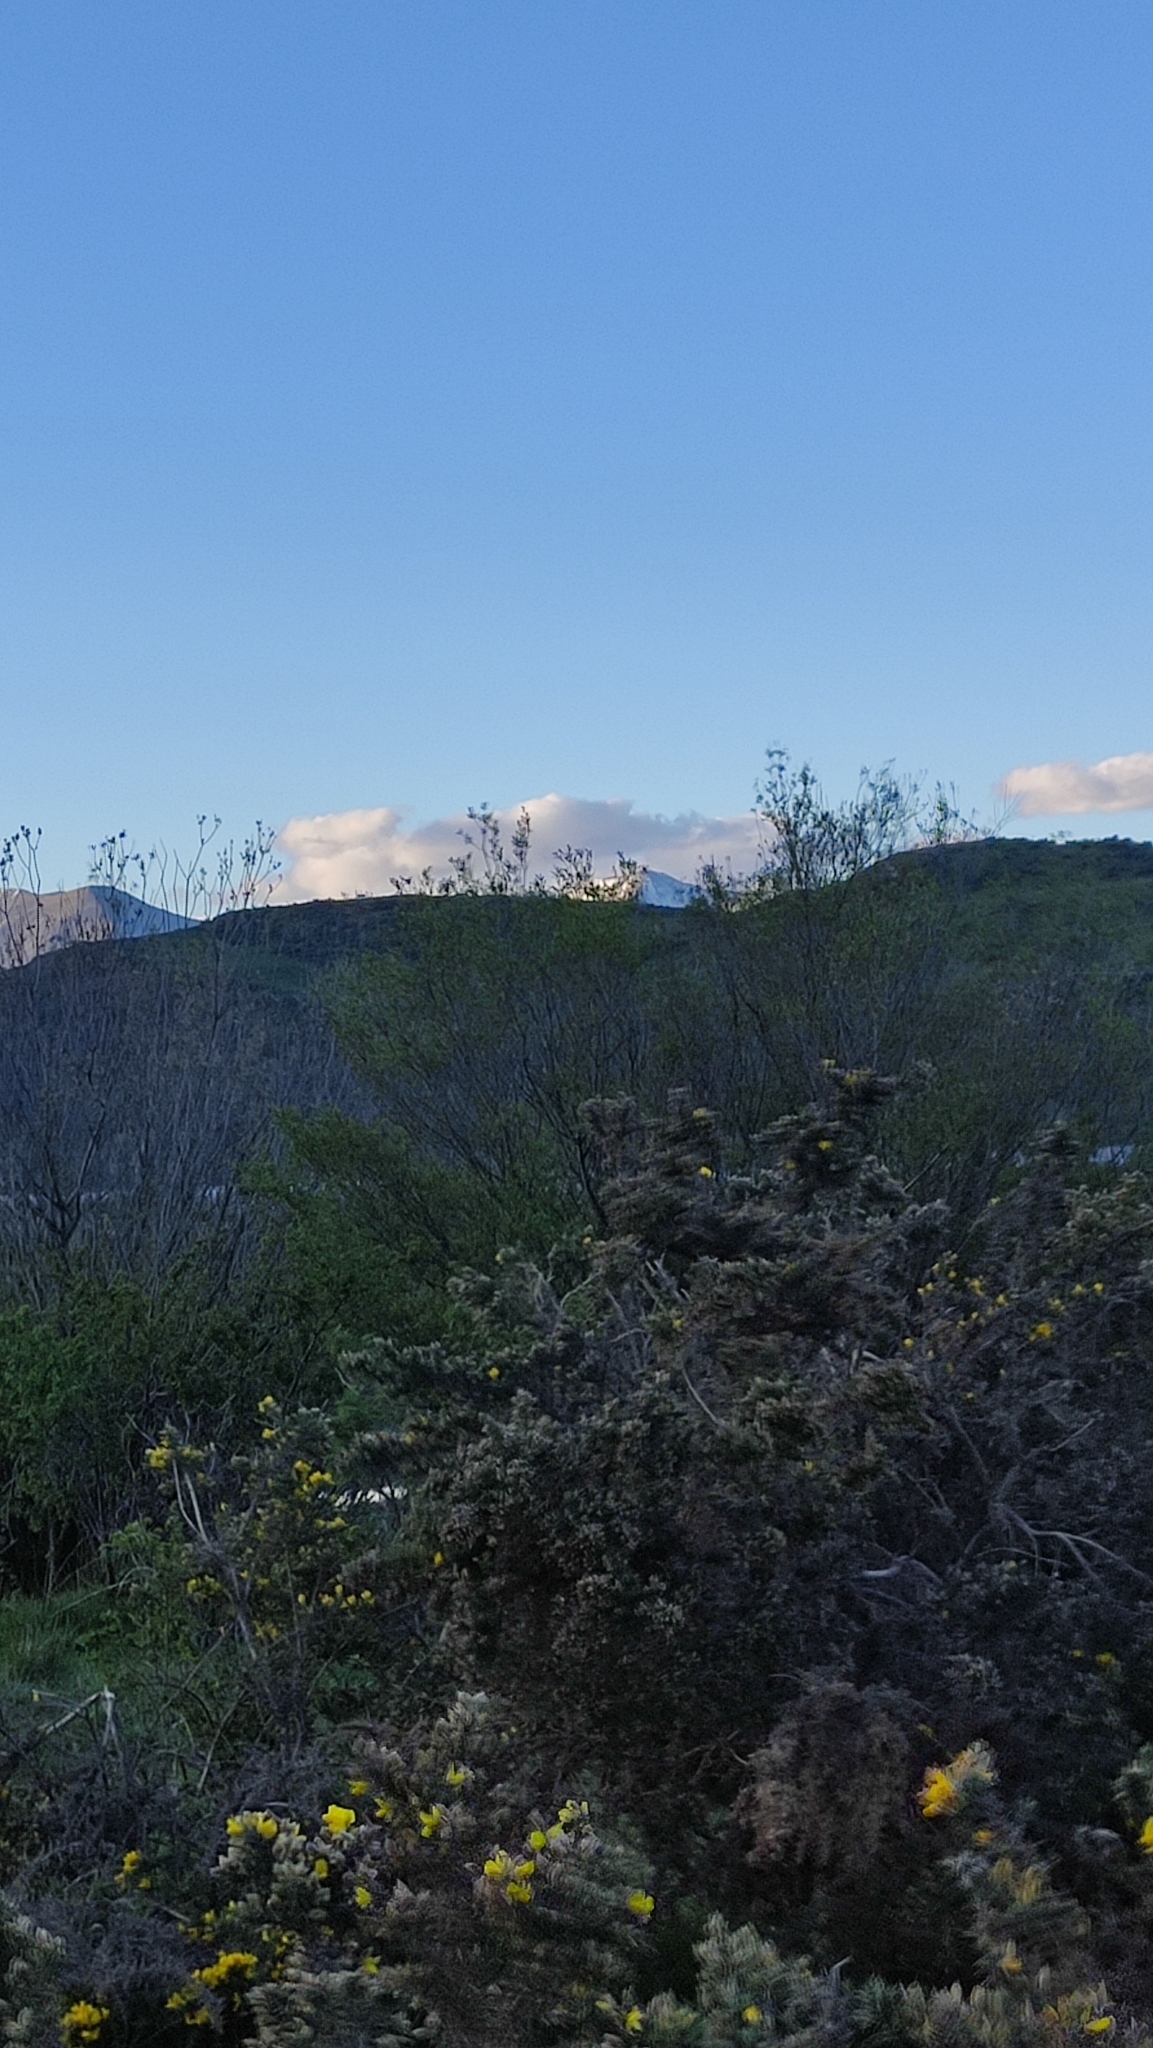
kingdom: Animalia
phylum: Chordata
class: Aves
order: Anseriformes
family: Anatidae
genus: Tadorna
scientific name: Tadorna variegata
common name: Paradise shelduck
